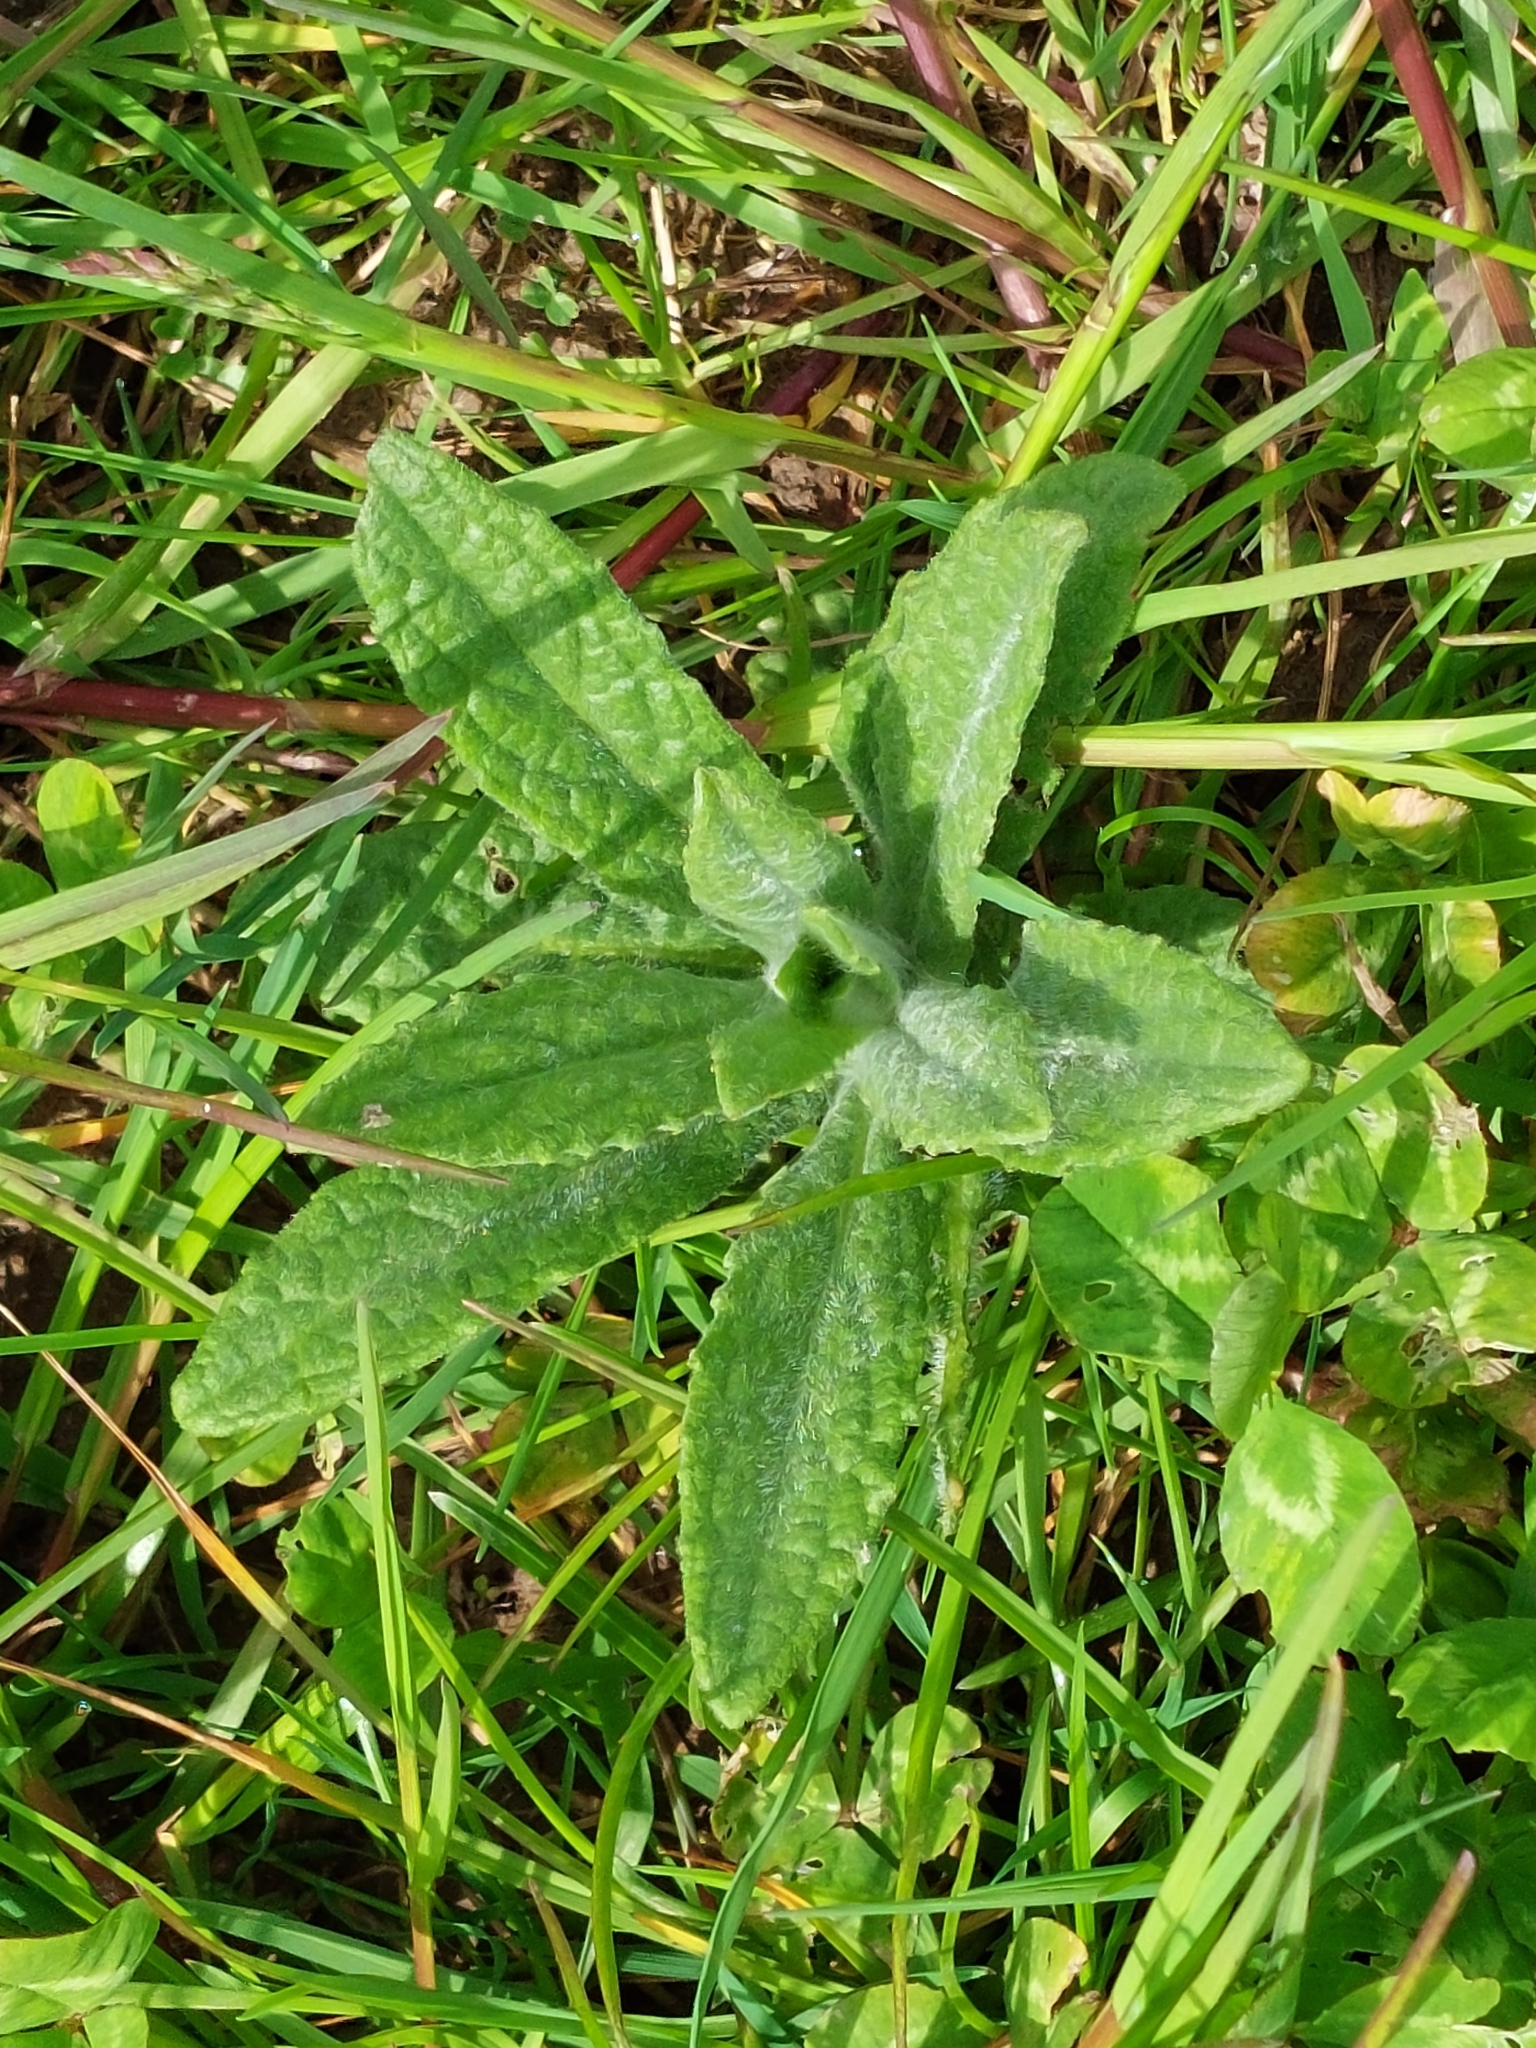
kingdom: Plantae
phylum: Tracheophyta
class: Magnoliopsida
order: Asterales
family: Asteraceae
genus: Pulicaria
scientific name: Pulicaria dysenterica
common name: Common fleabane
